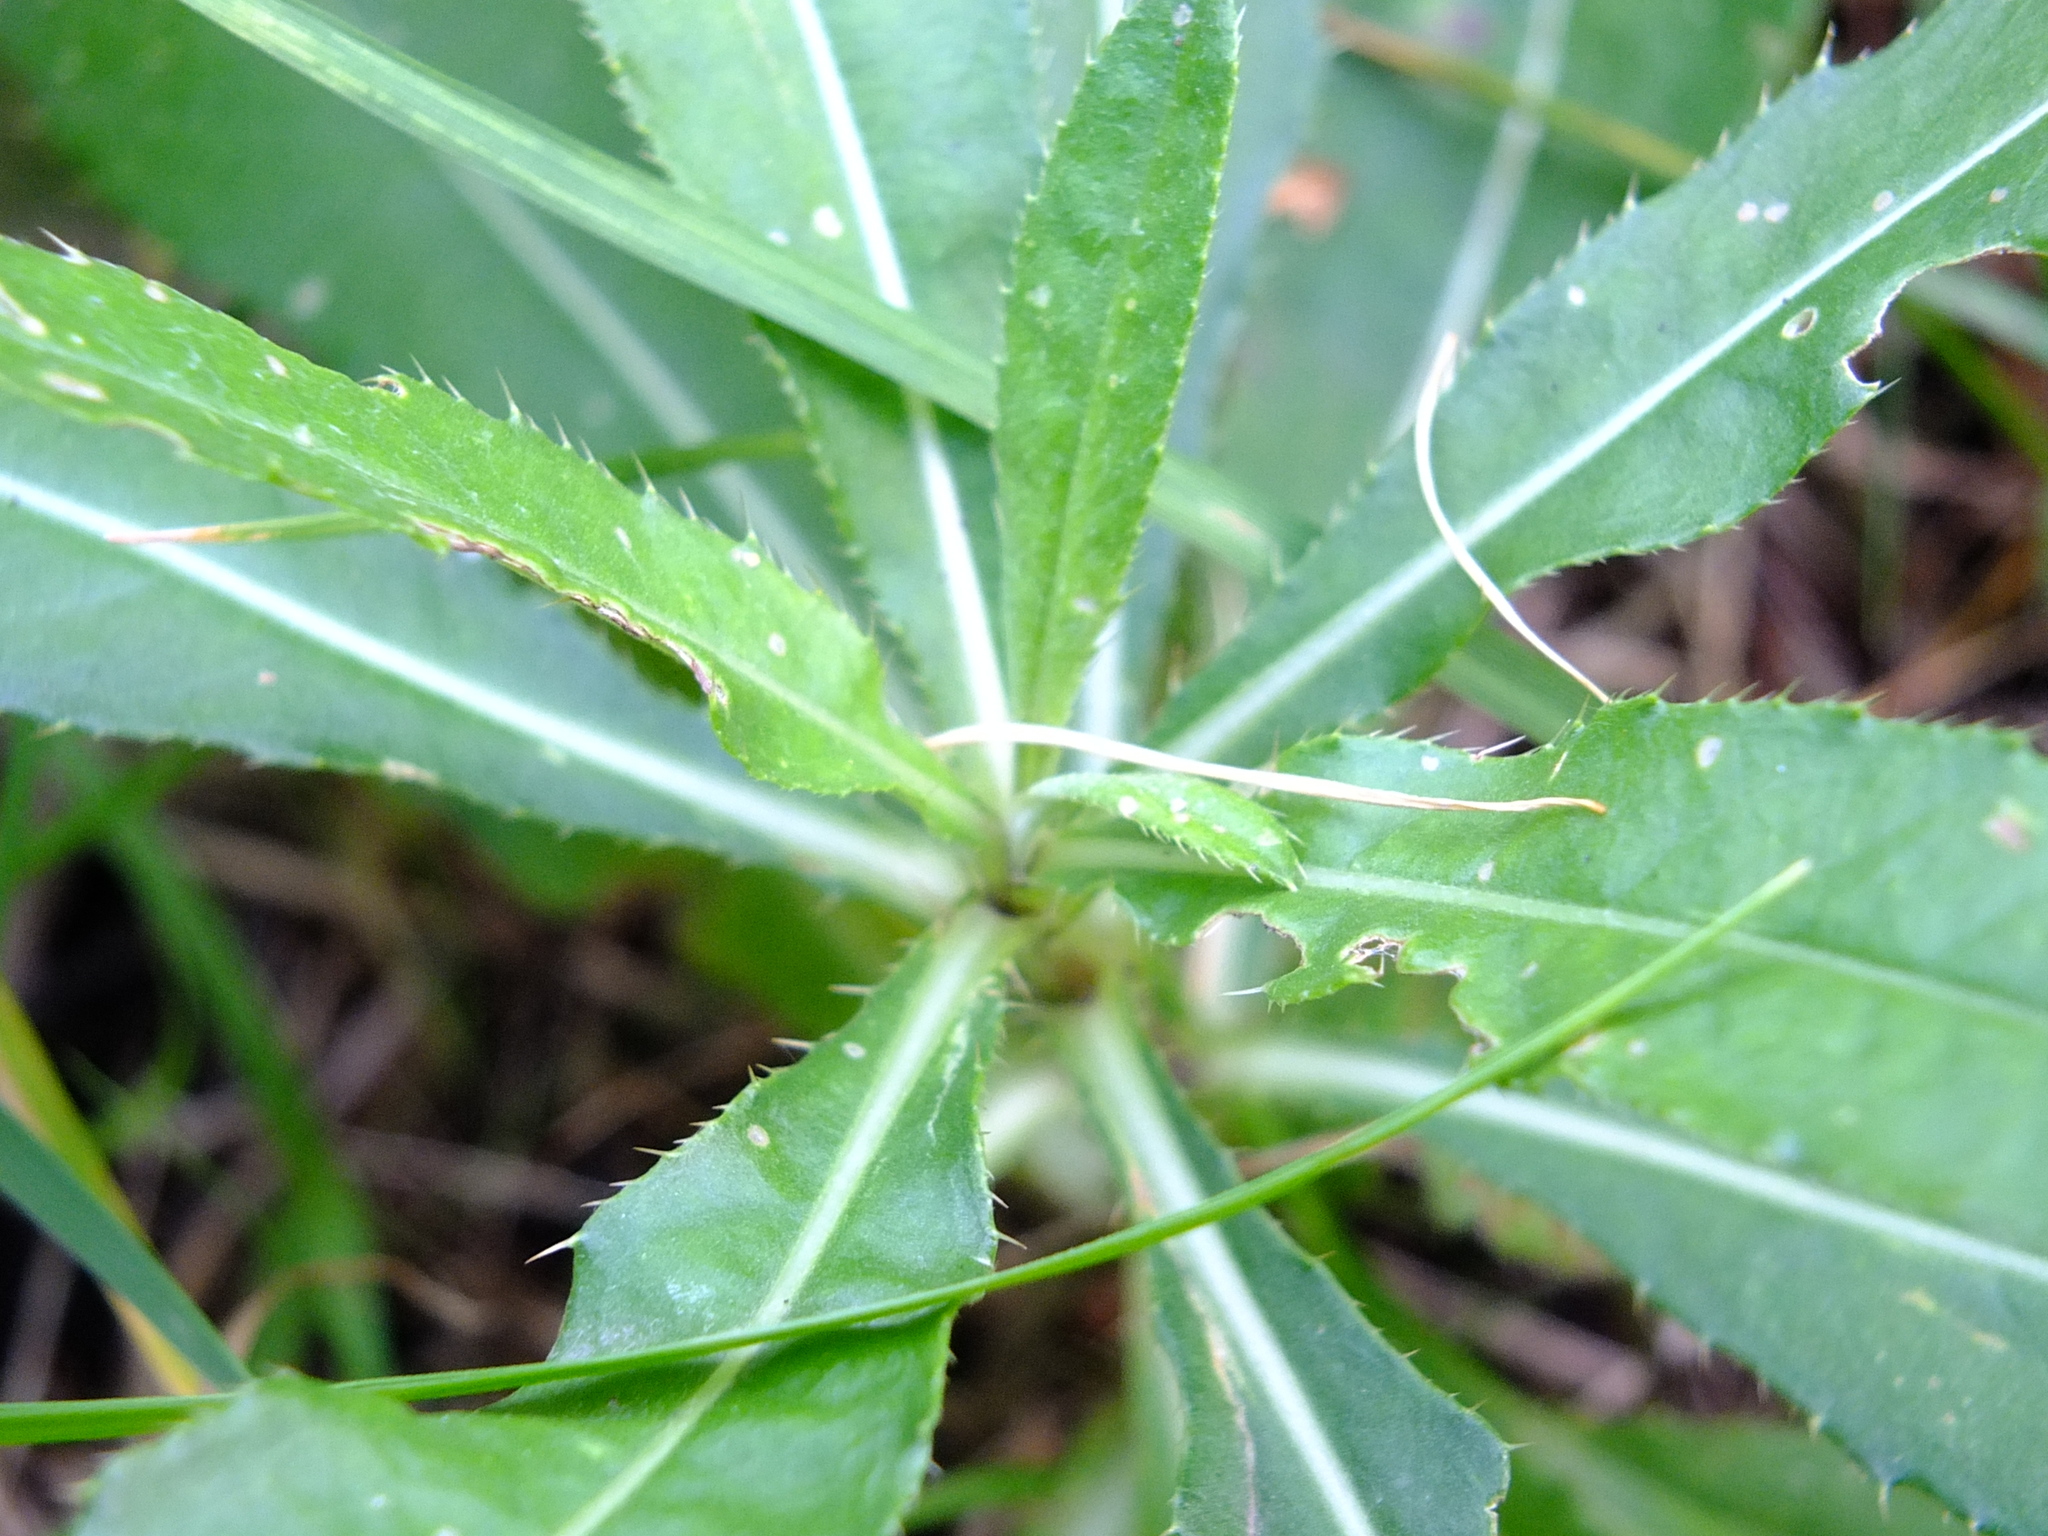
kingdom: Plantae
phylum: Tracheophyta
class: Magnoliopsida
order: Asterales
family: Asteraceae
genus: Cirsium
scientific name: Cirsium arvense
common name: Creeping thistle
